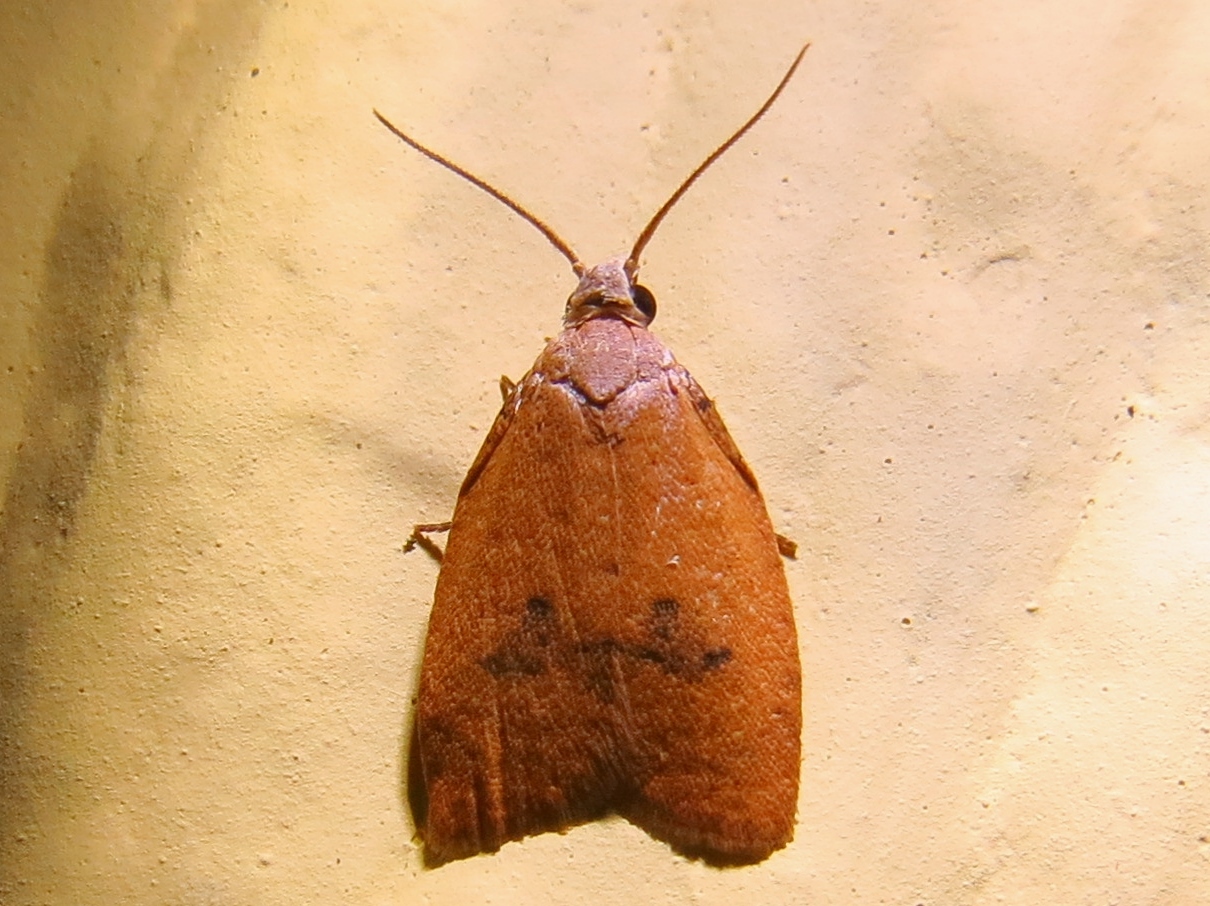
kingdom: Animalia
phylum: Arthropoda
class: Insecta
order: Lepidoptera
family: Tortricidae
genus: Sparganothoides
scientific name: Sparganothoides lentiginosana
